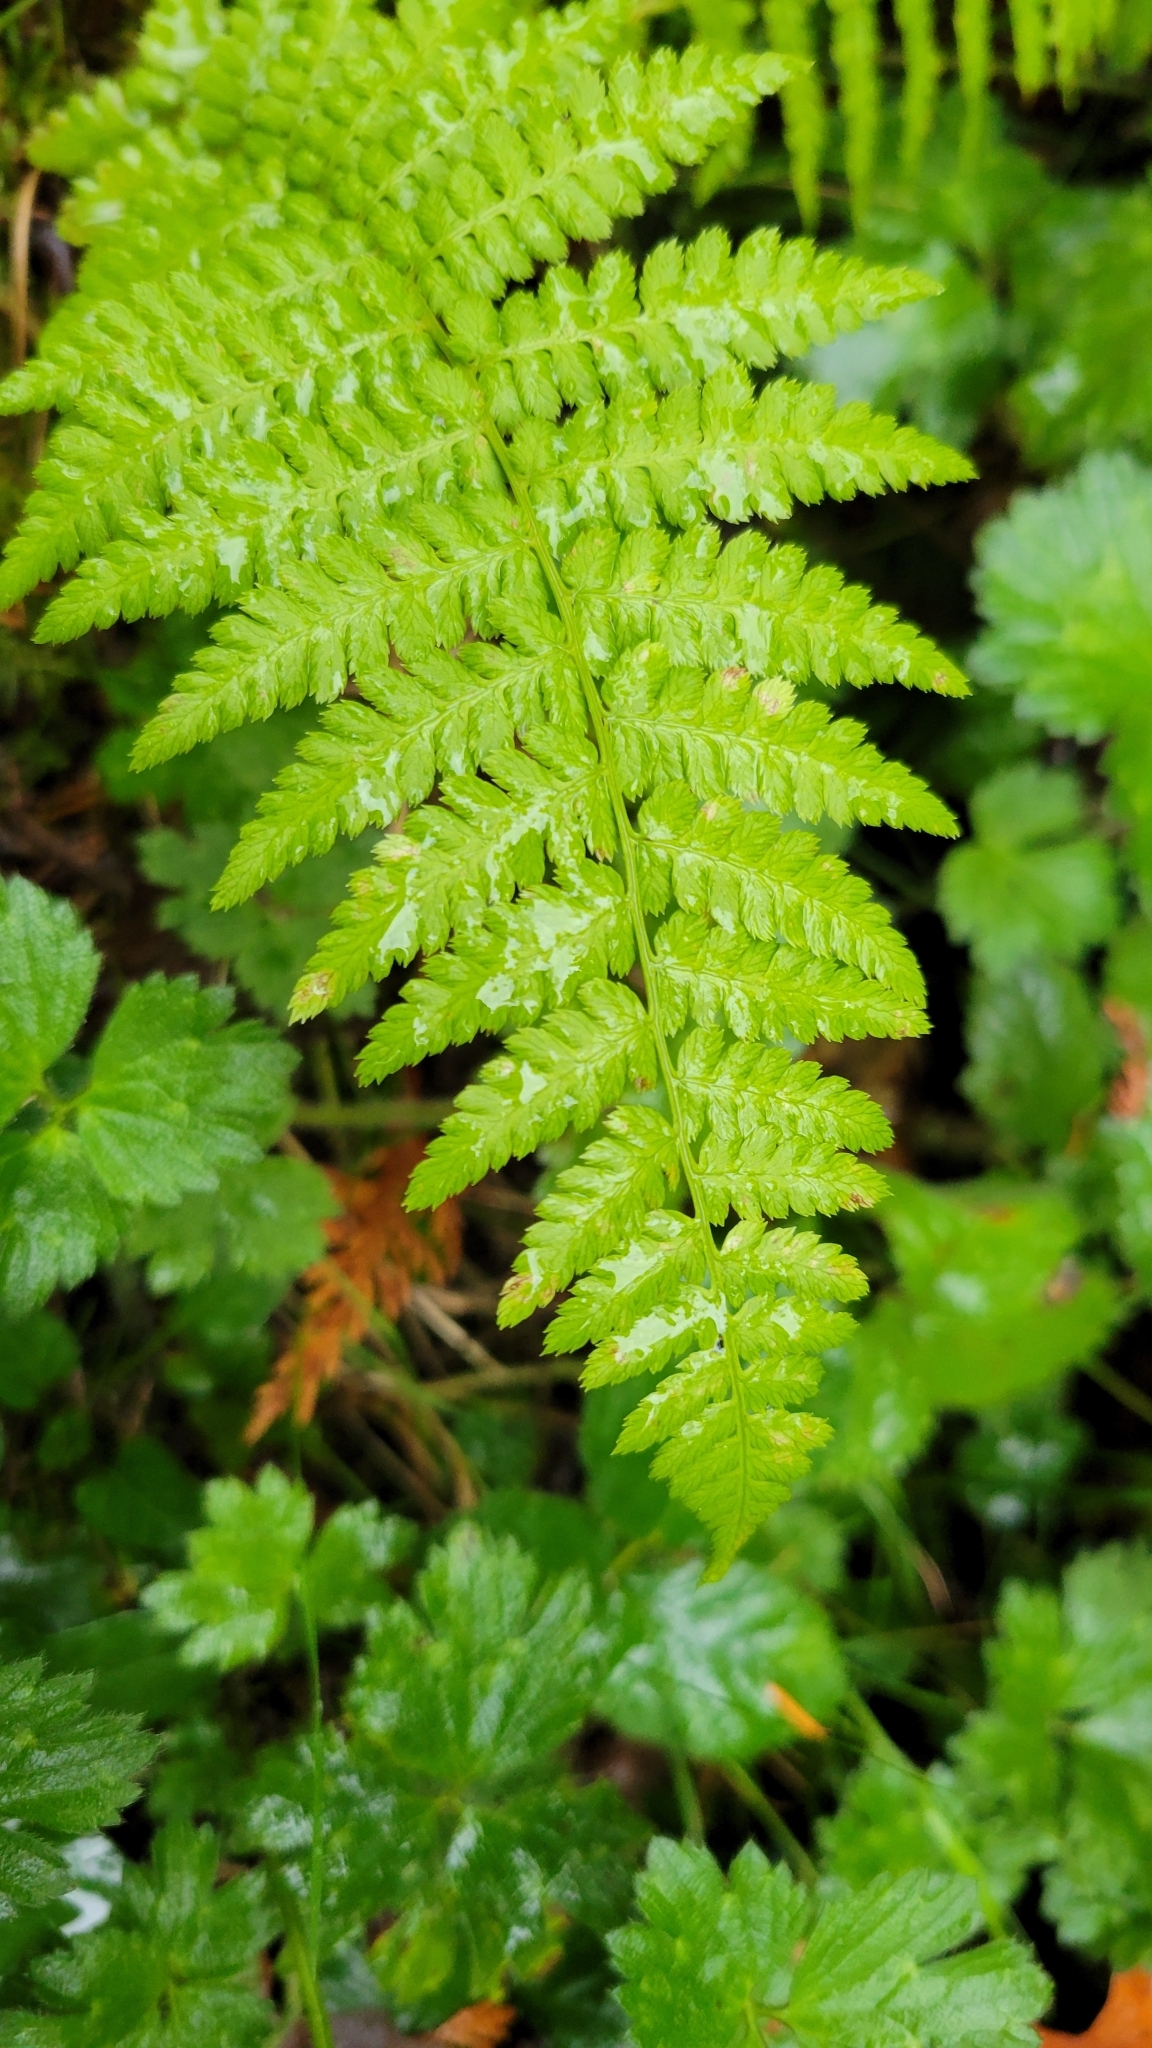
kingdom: Plantae
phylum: Tracheophyta
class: Polypodiopsida
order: Polypodiales
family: Athyriaceae
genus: Athyrium
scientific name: Athyrium filix-femina
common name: Lady fern
